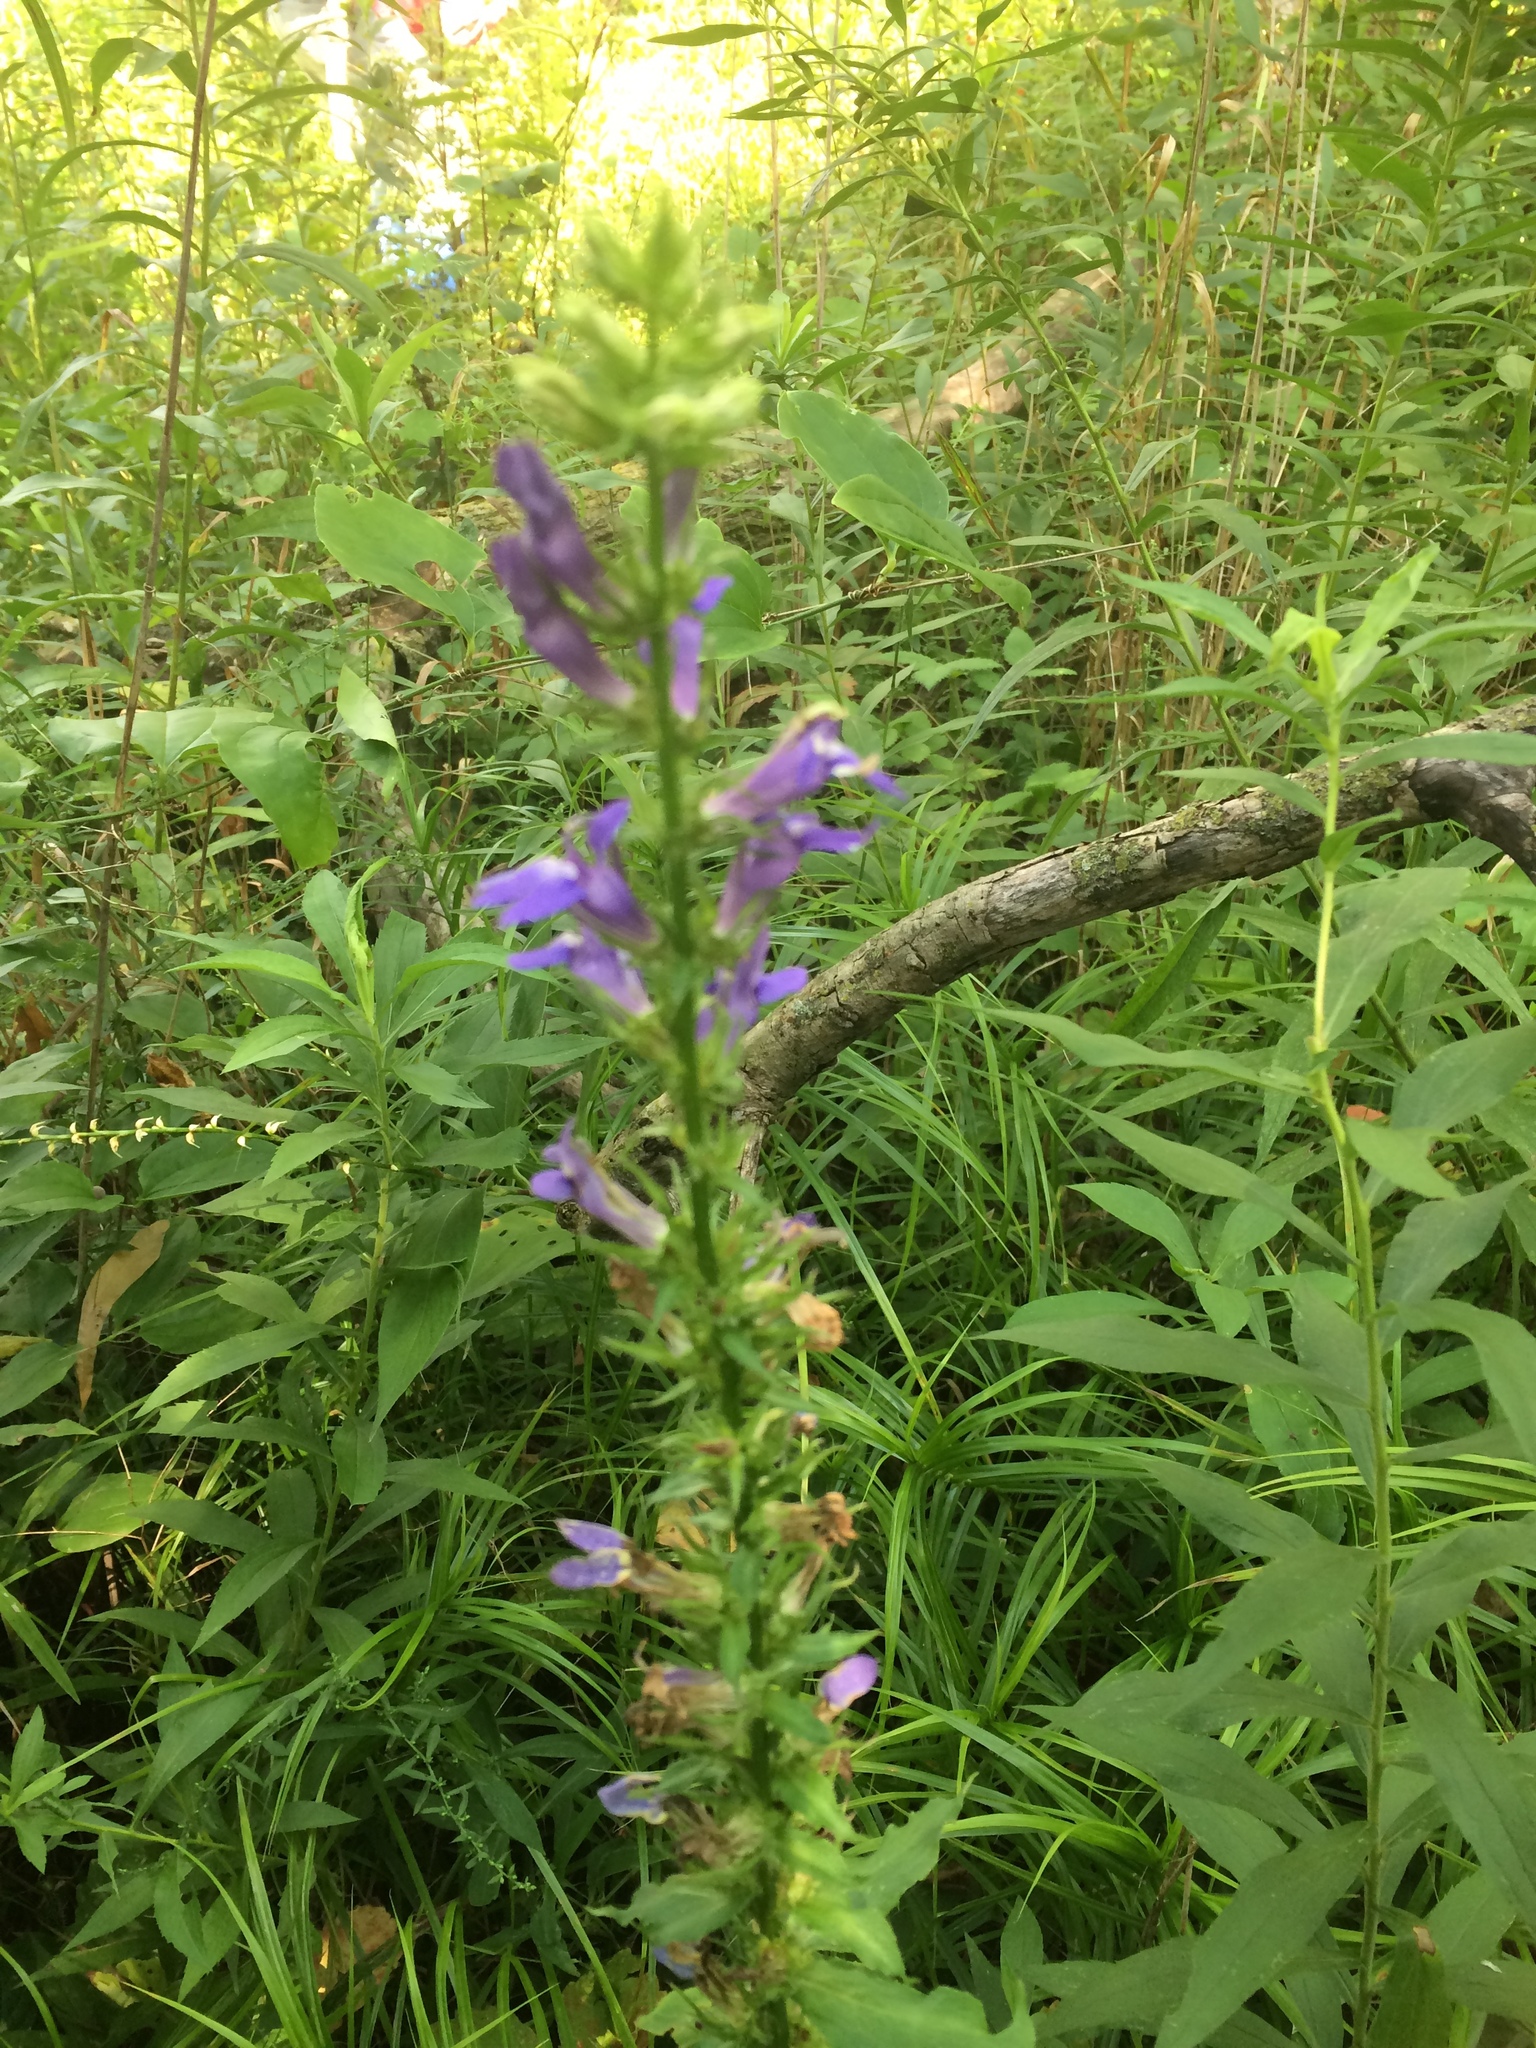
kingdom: Plantae
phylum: Tracheophyta
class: Magnoliopsida
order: Asterales
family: Campanulaceae
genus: Lobelia
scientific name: Lobelia siphilitica
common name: Great lobelia
